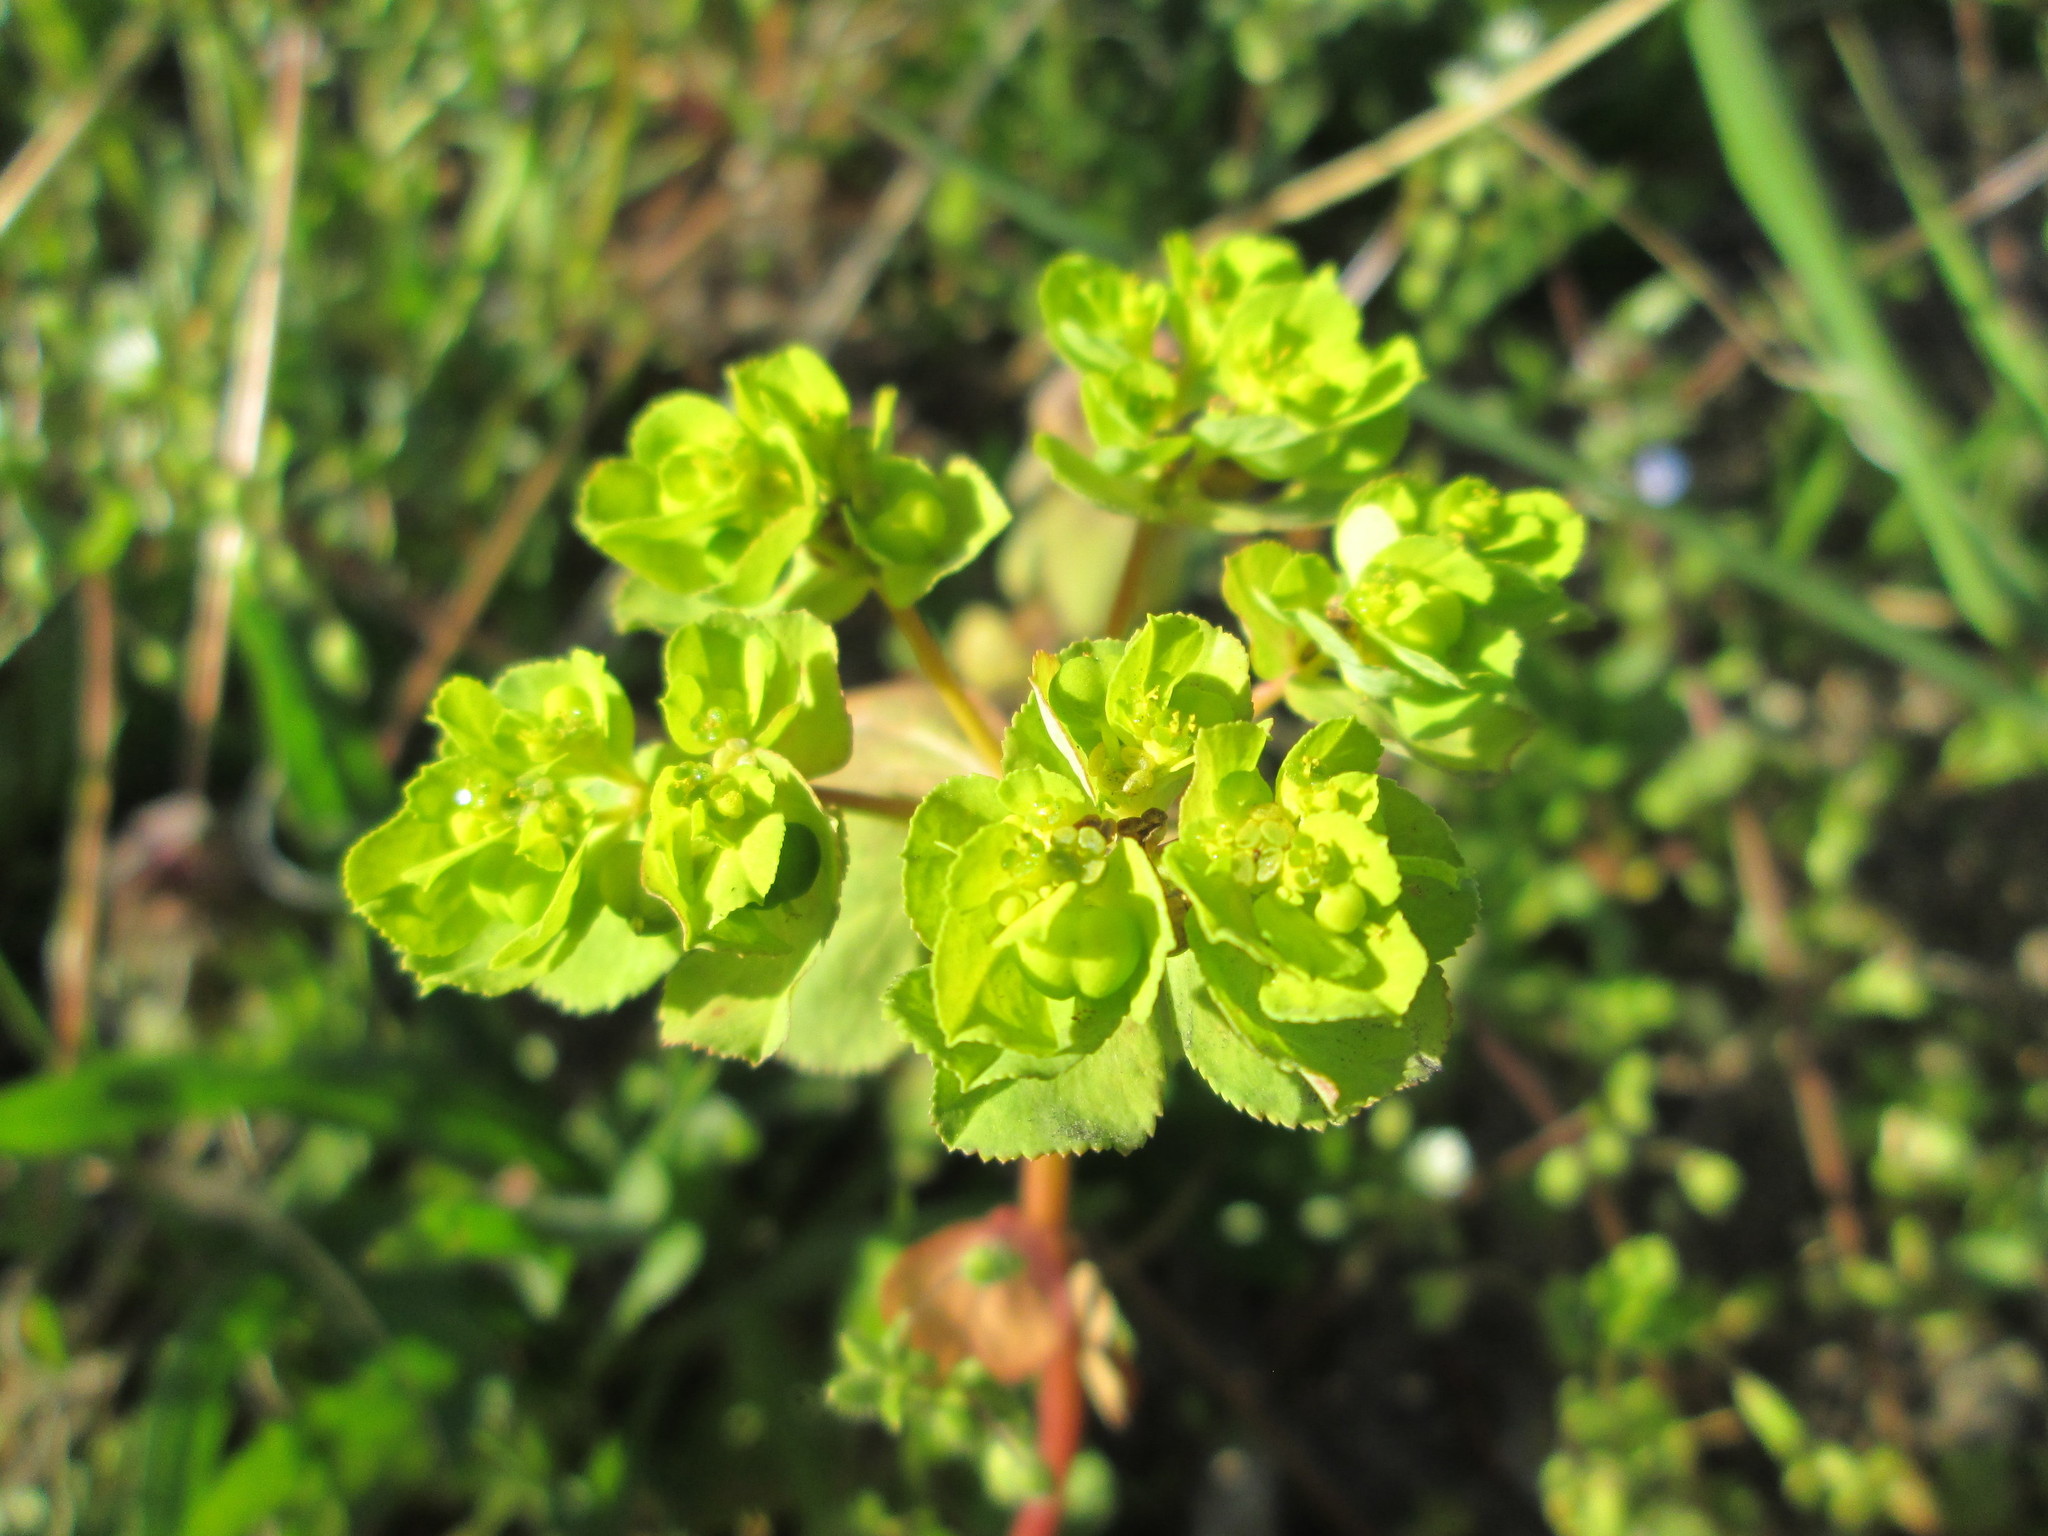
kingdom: Plantae
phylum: Tracheophyta
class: Magnoliopsida
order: Malpighiales
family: Euphorbiaceae
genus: Euphorbia
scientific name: Euphorbia helioscopia
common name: Sun spurge
